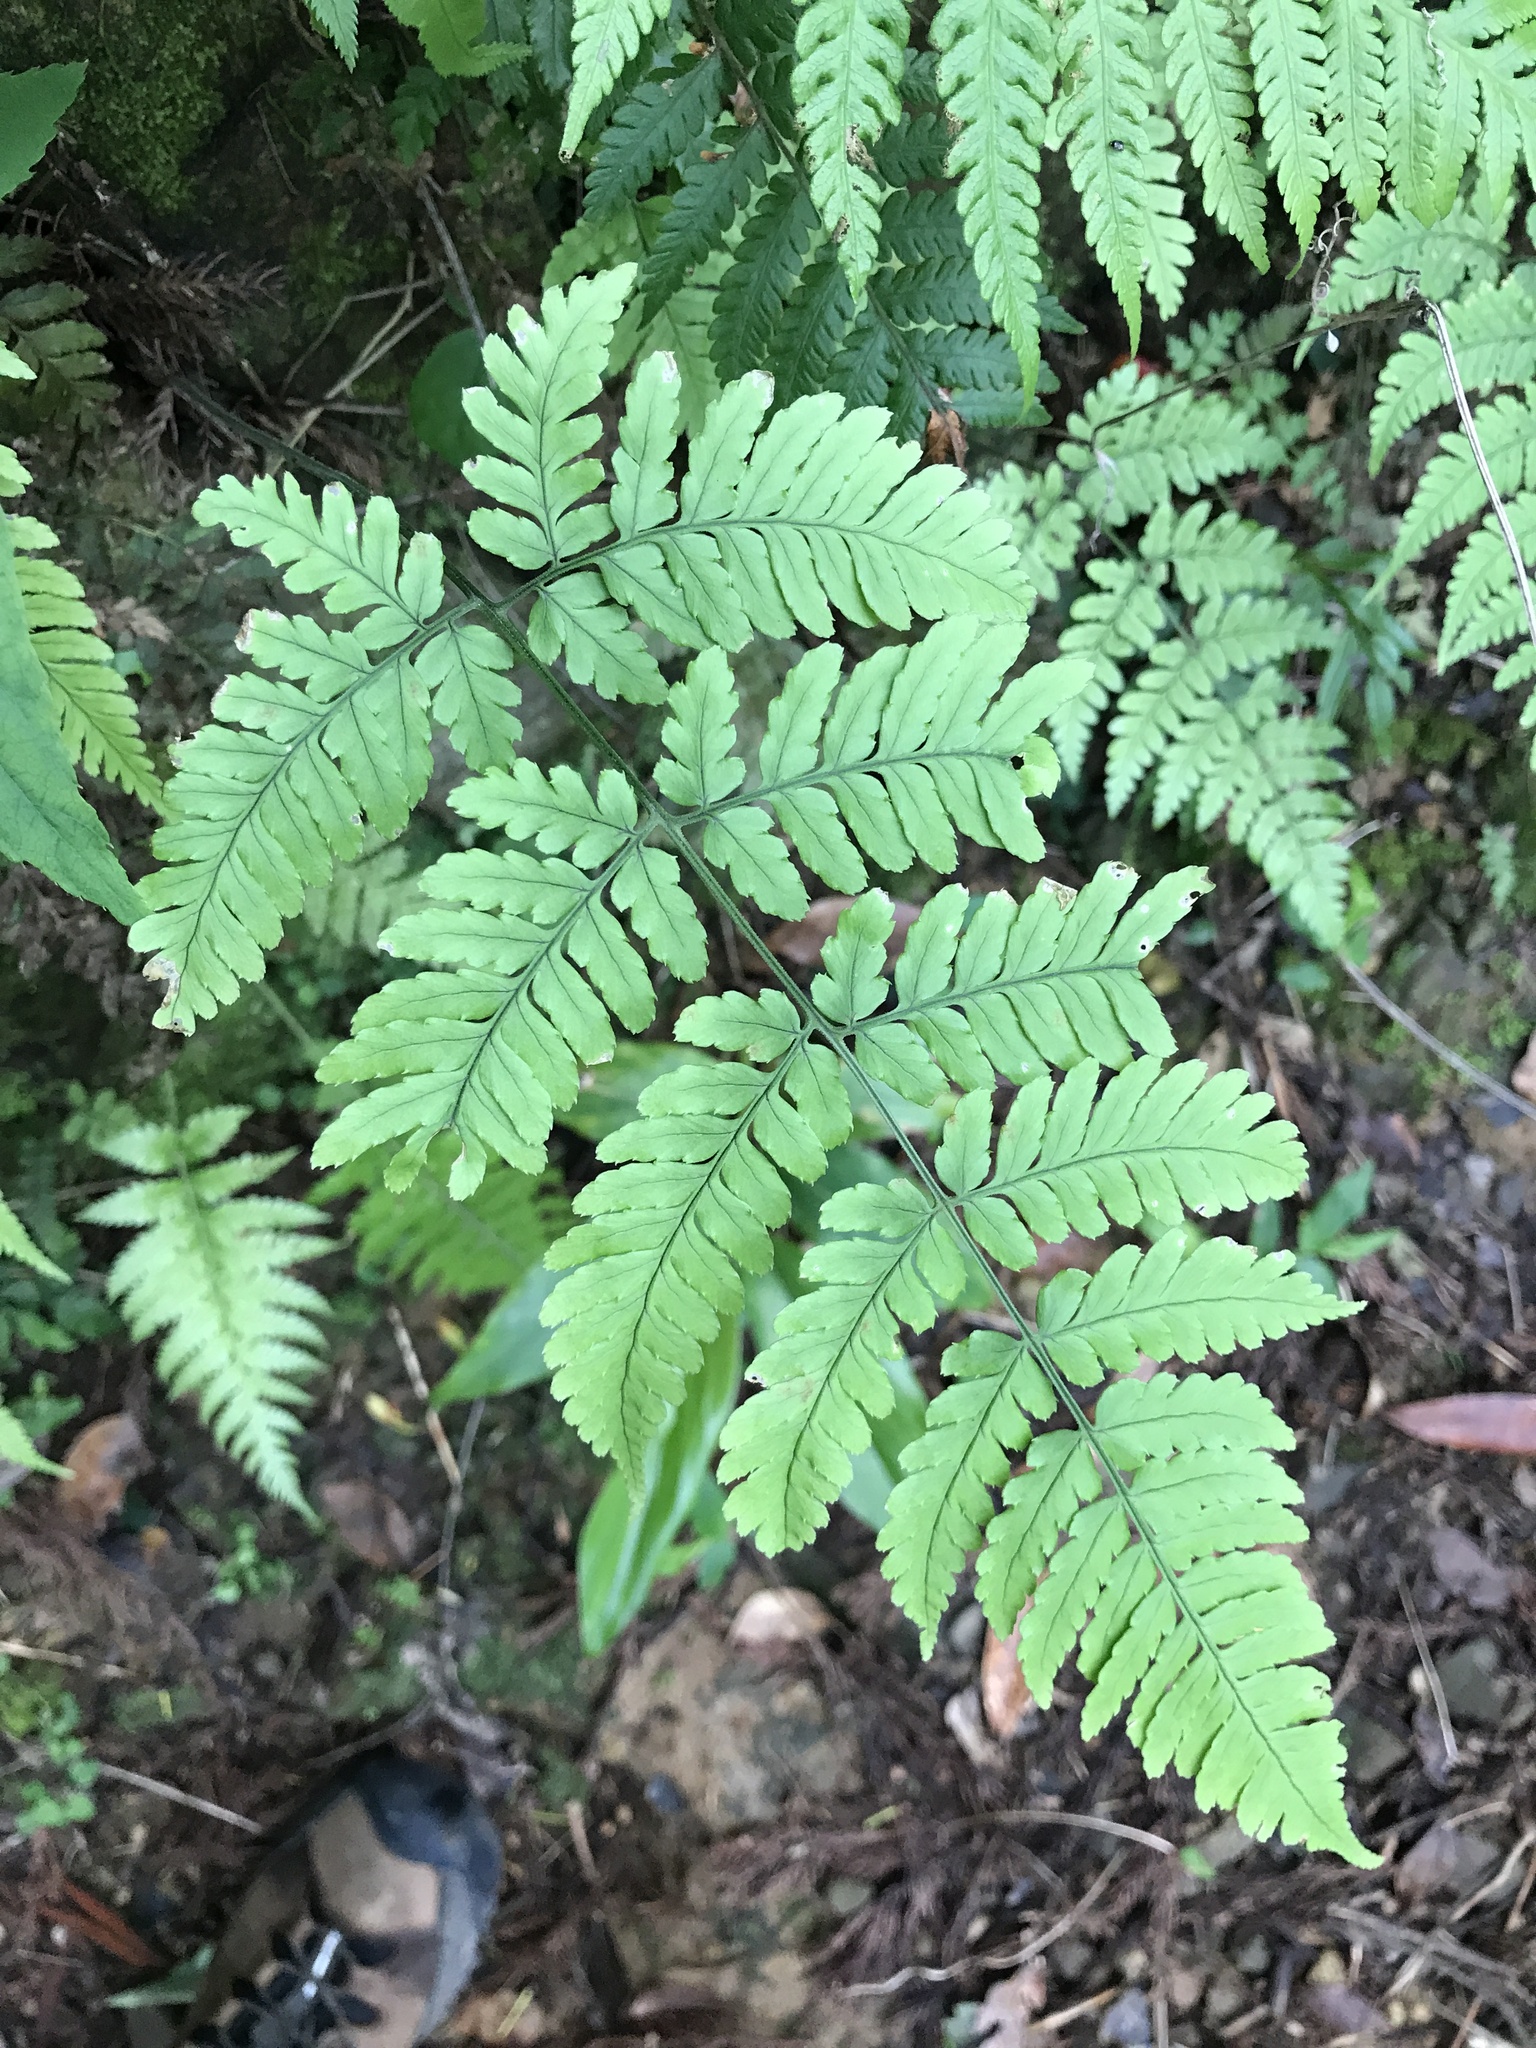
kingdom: Plantae
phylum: Tracheophyta
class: Polypodiopsida
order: Polypodiales
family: Dryopteridaceae
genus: Dryopteris
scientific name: Dryopteris sparsa
